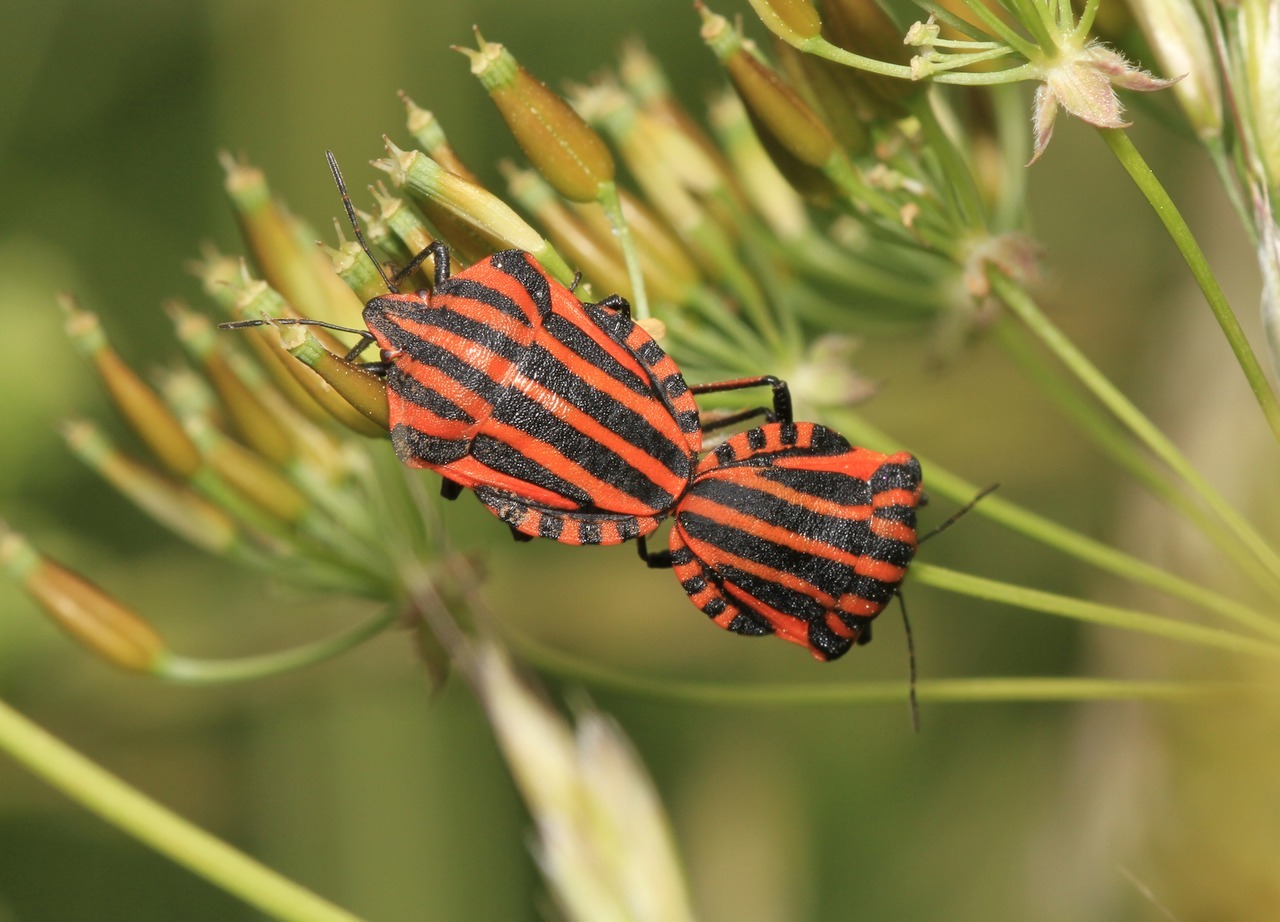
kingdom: Animalia
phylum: Arthropoda
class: Insecta
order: Hemiptera
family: Pentatomidae
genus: Graphosoma
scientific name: Graphosoma italicum
